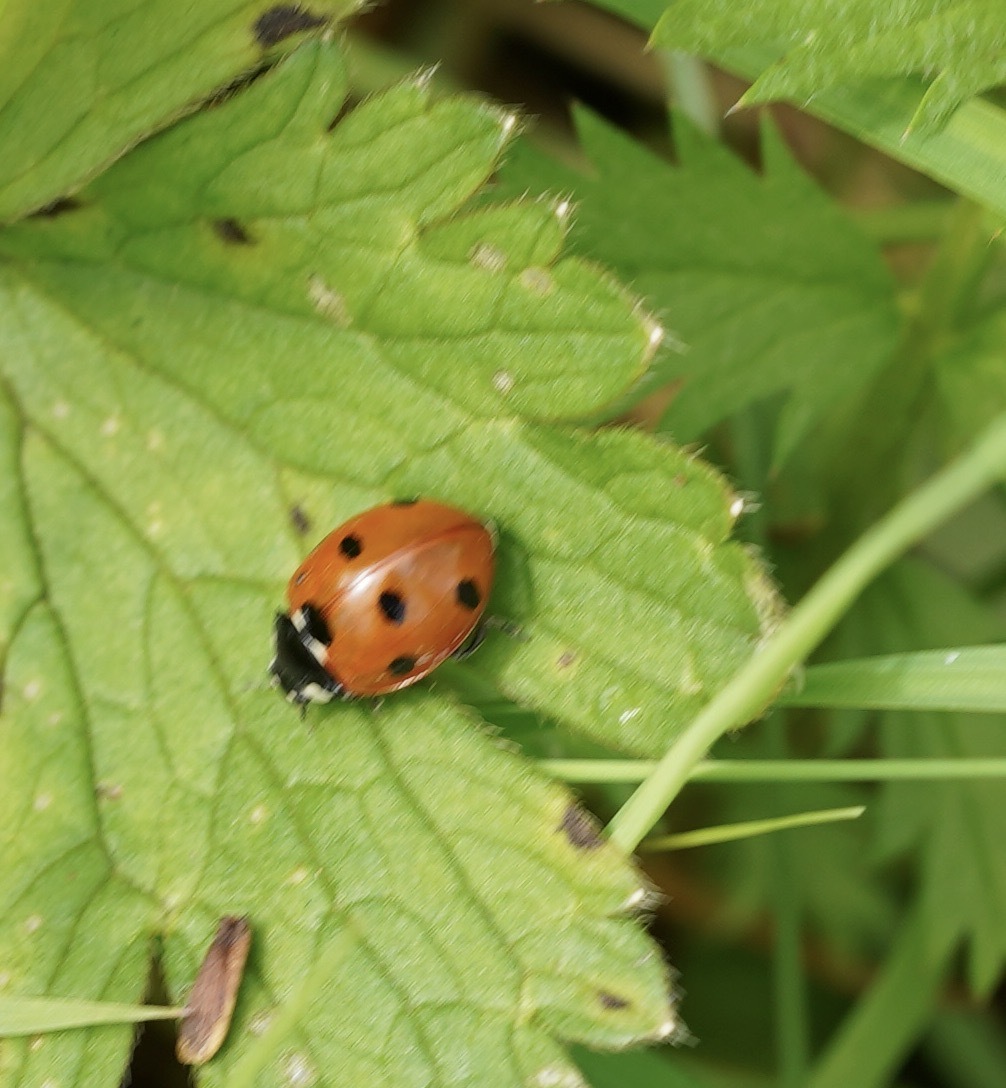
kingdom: Animalia
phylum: Arthropoda
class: Insecta
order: Coleoptera
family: Coccinellidae
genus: Coccinella
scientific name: Coccinella septempunctata
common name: Sevenspotted lady beetle
